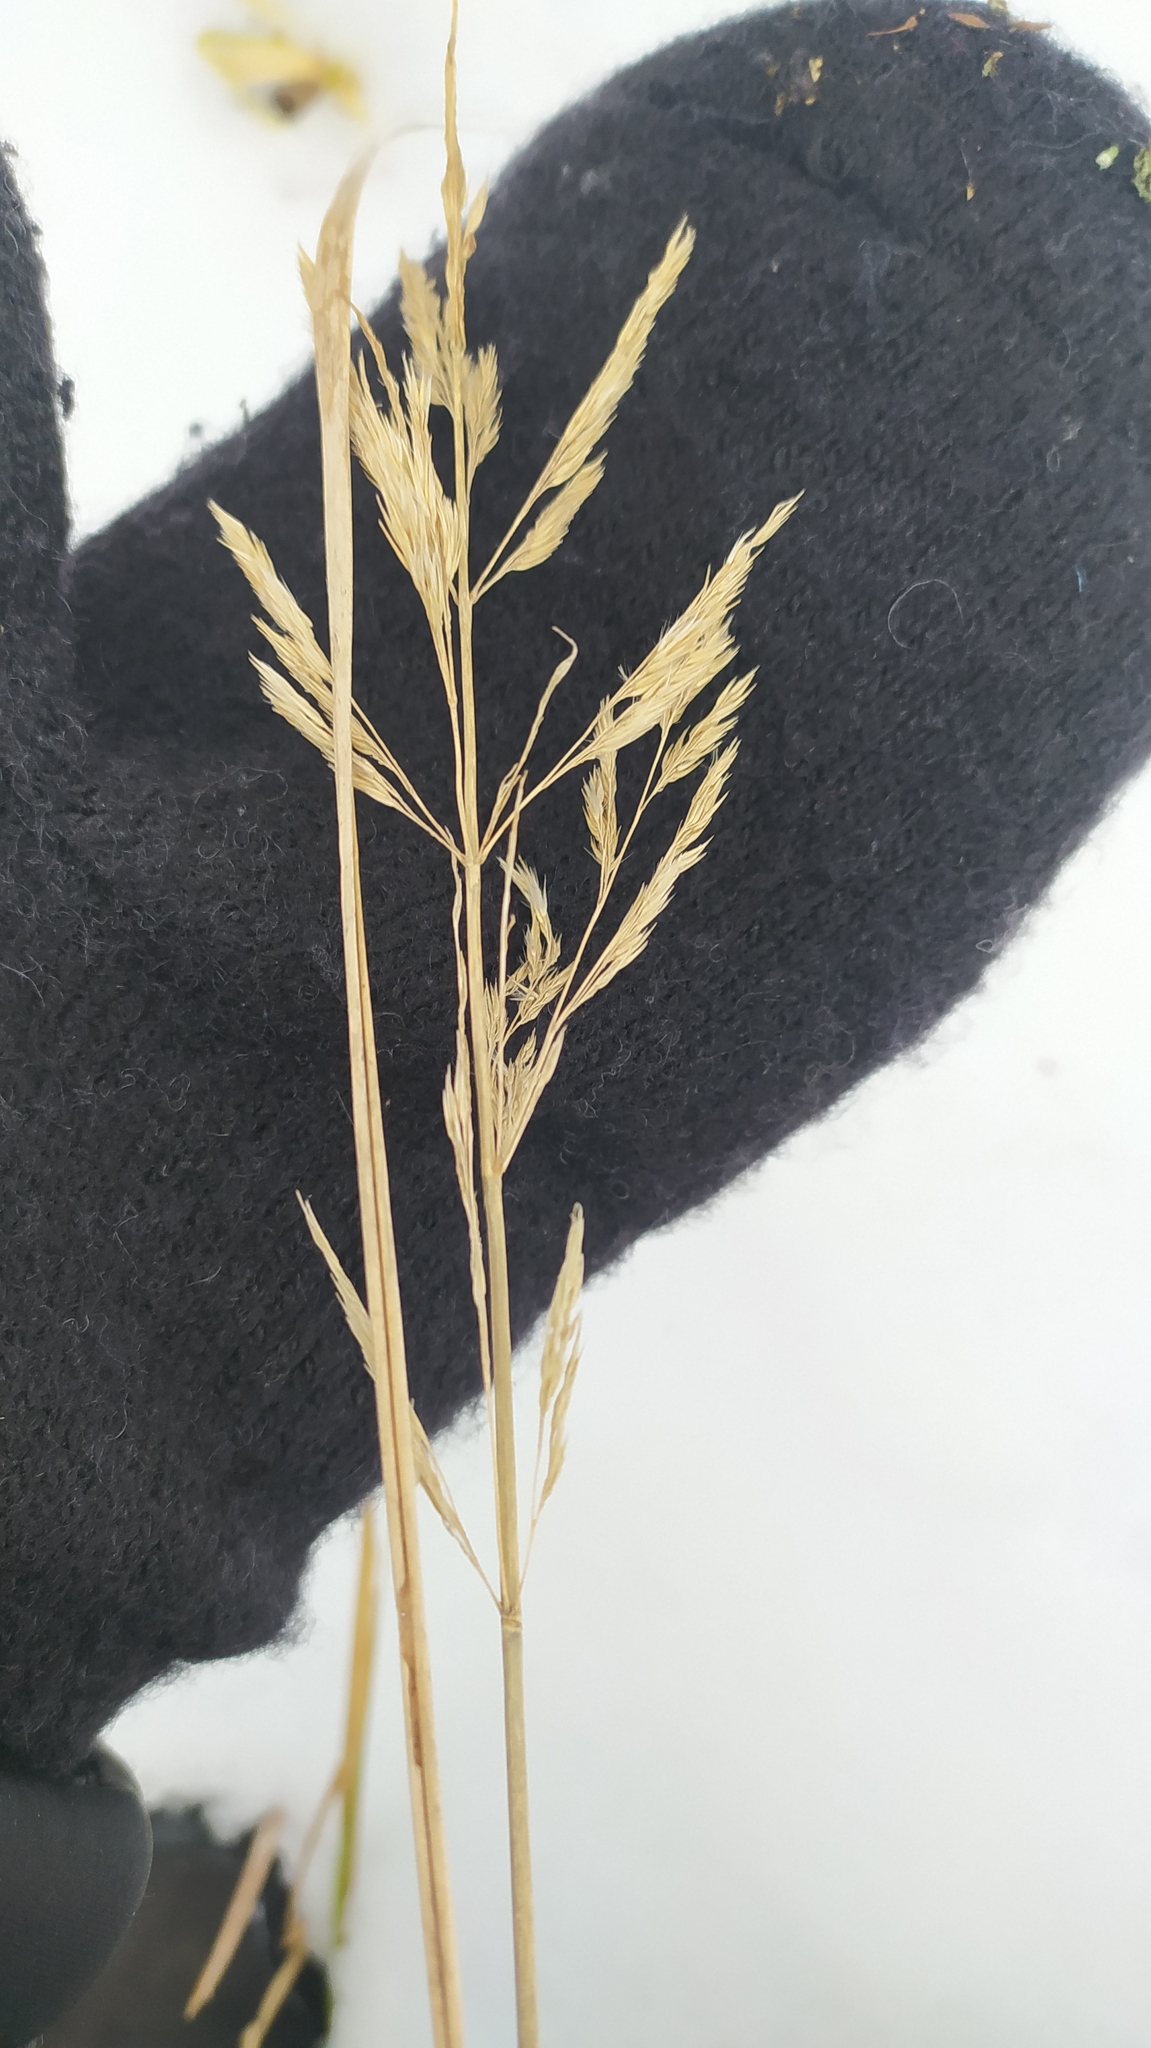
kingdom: Plantae
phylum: Tracheophyta
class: Liliopsida
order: Poales
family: Poaceae
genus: Calamagrostis
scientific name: Calamagrostis epigejos
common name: Wood small-reed
